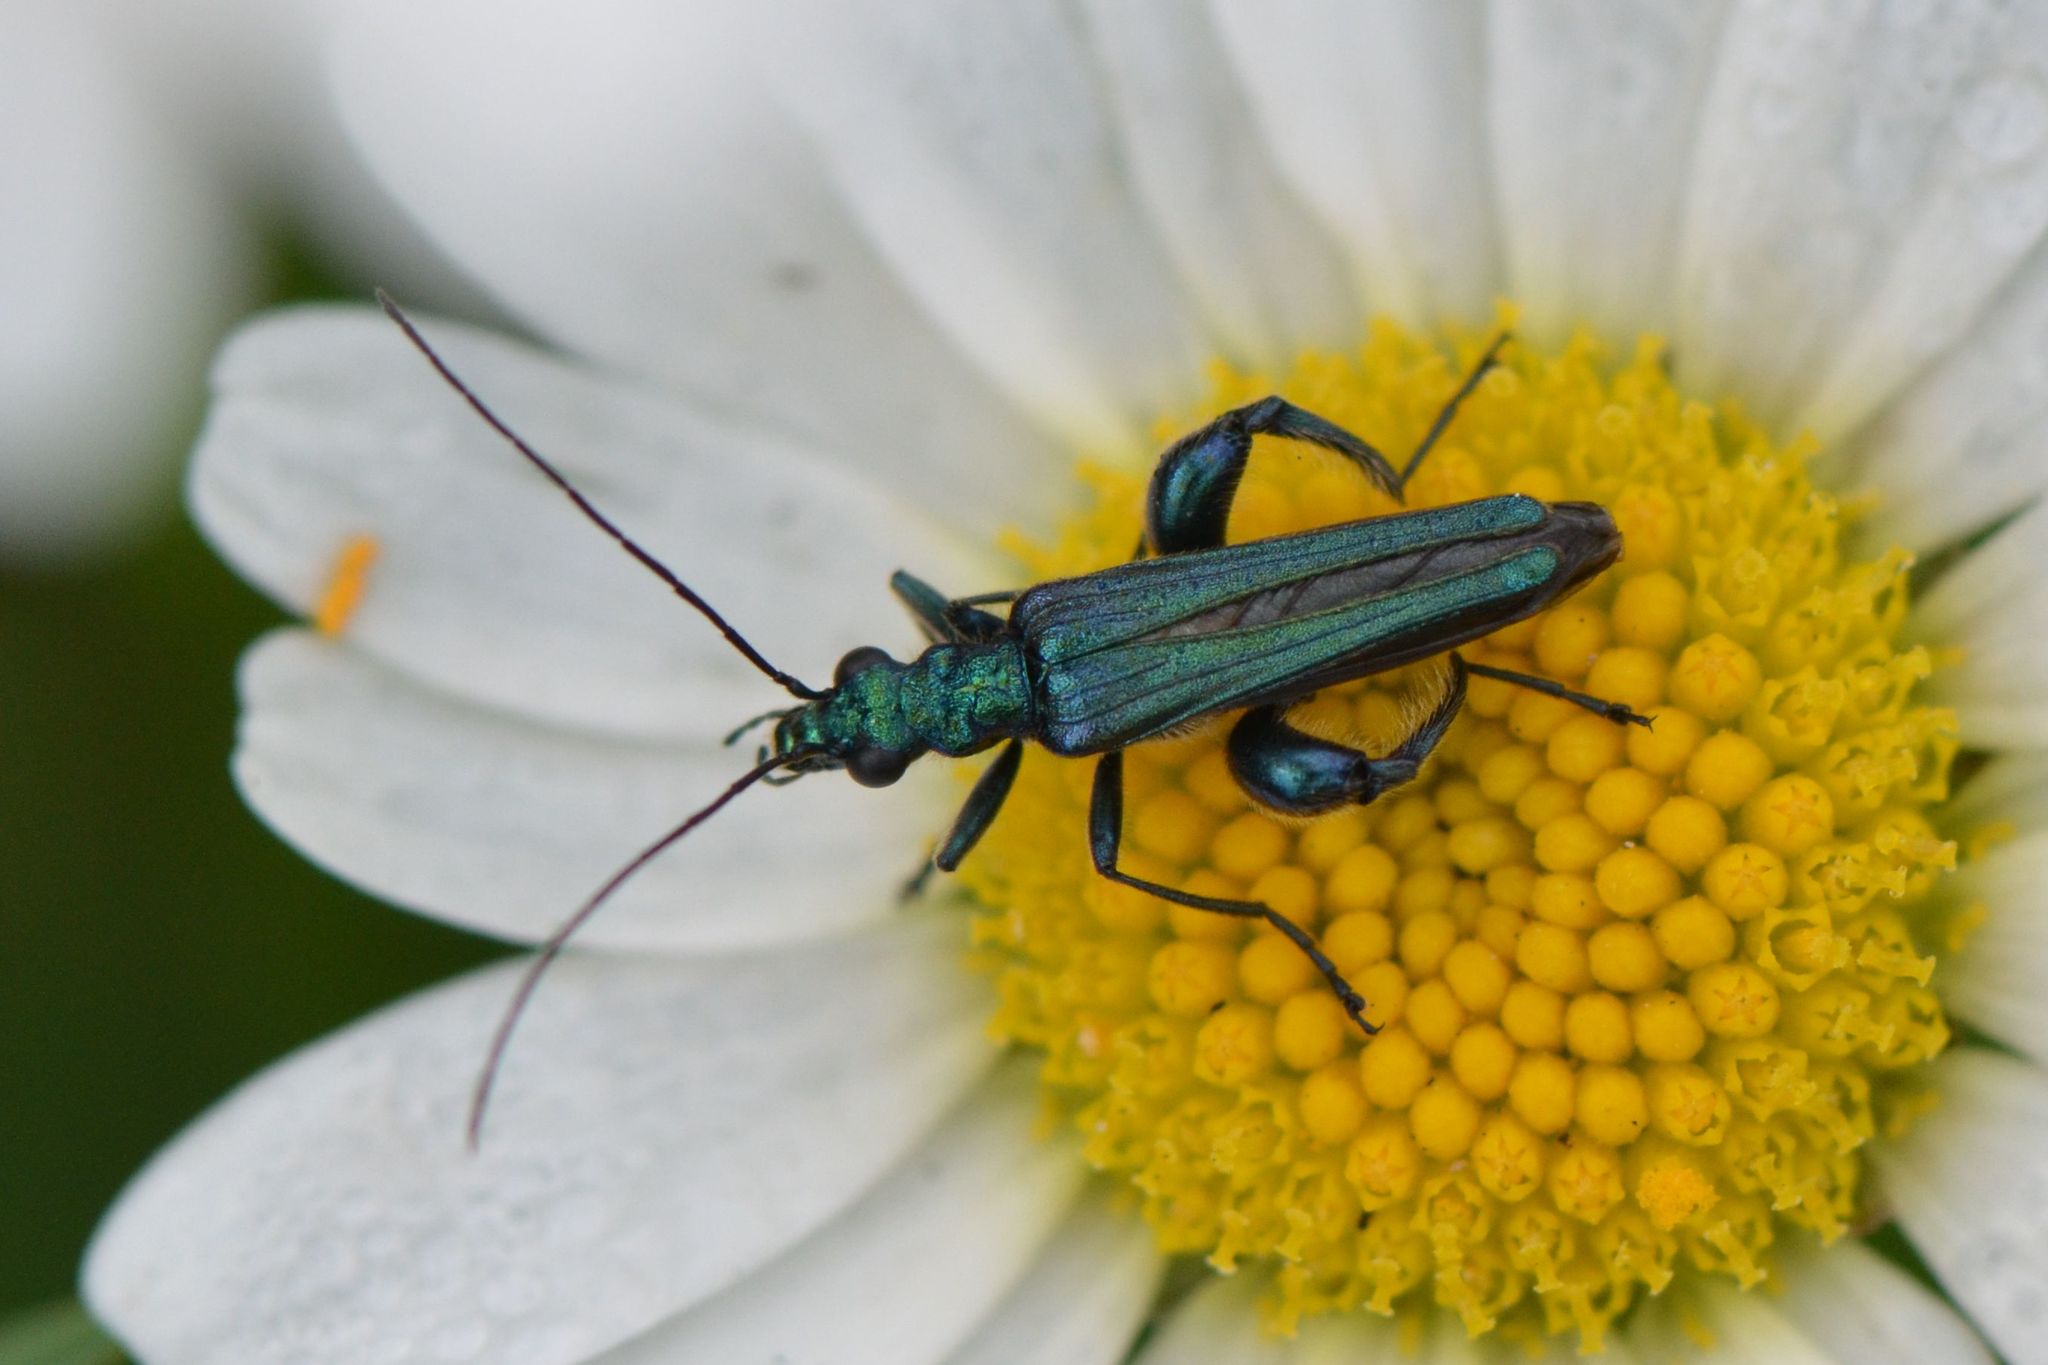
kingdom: Animalia
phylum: Arthropoda
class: Insecta
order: Coleoptera
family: Oedemeridae
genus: Oedemera
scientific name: Oedemera nobilis
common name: Swollen-thighed beetle
